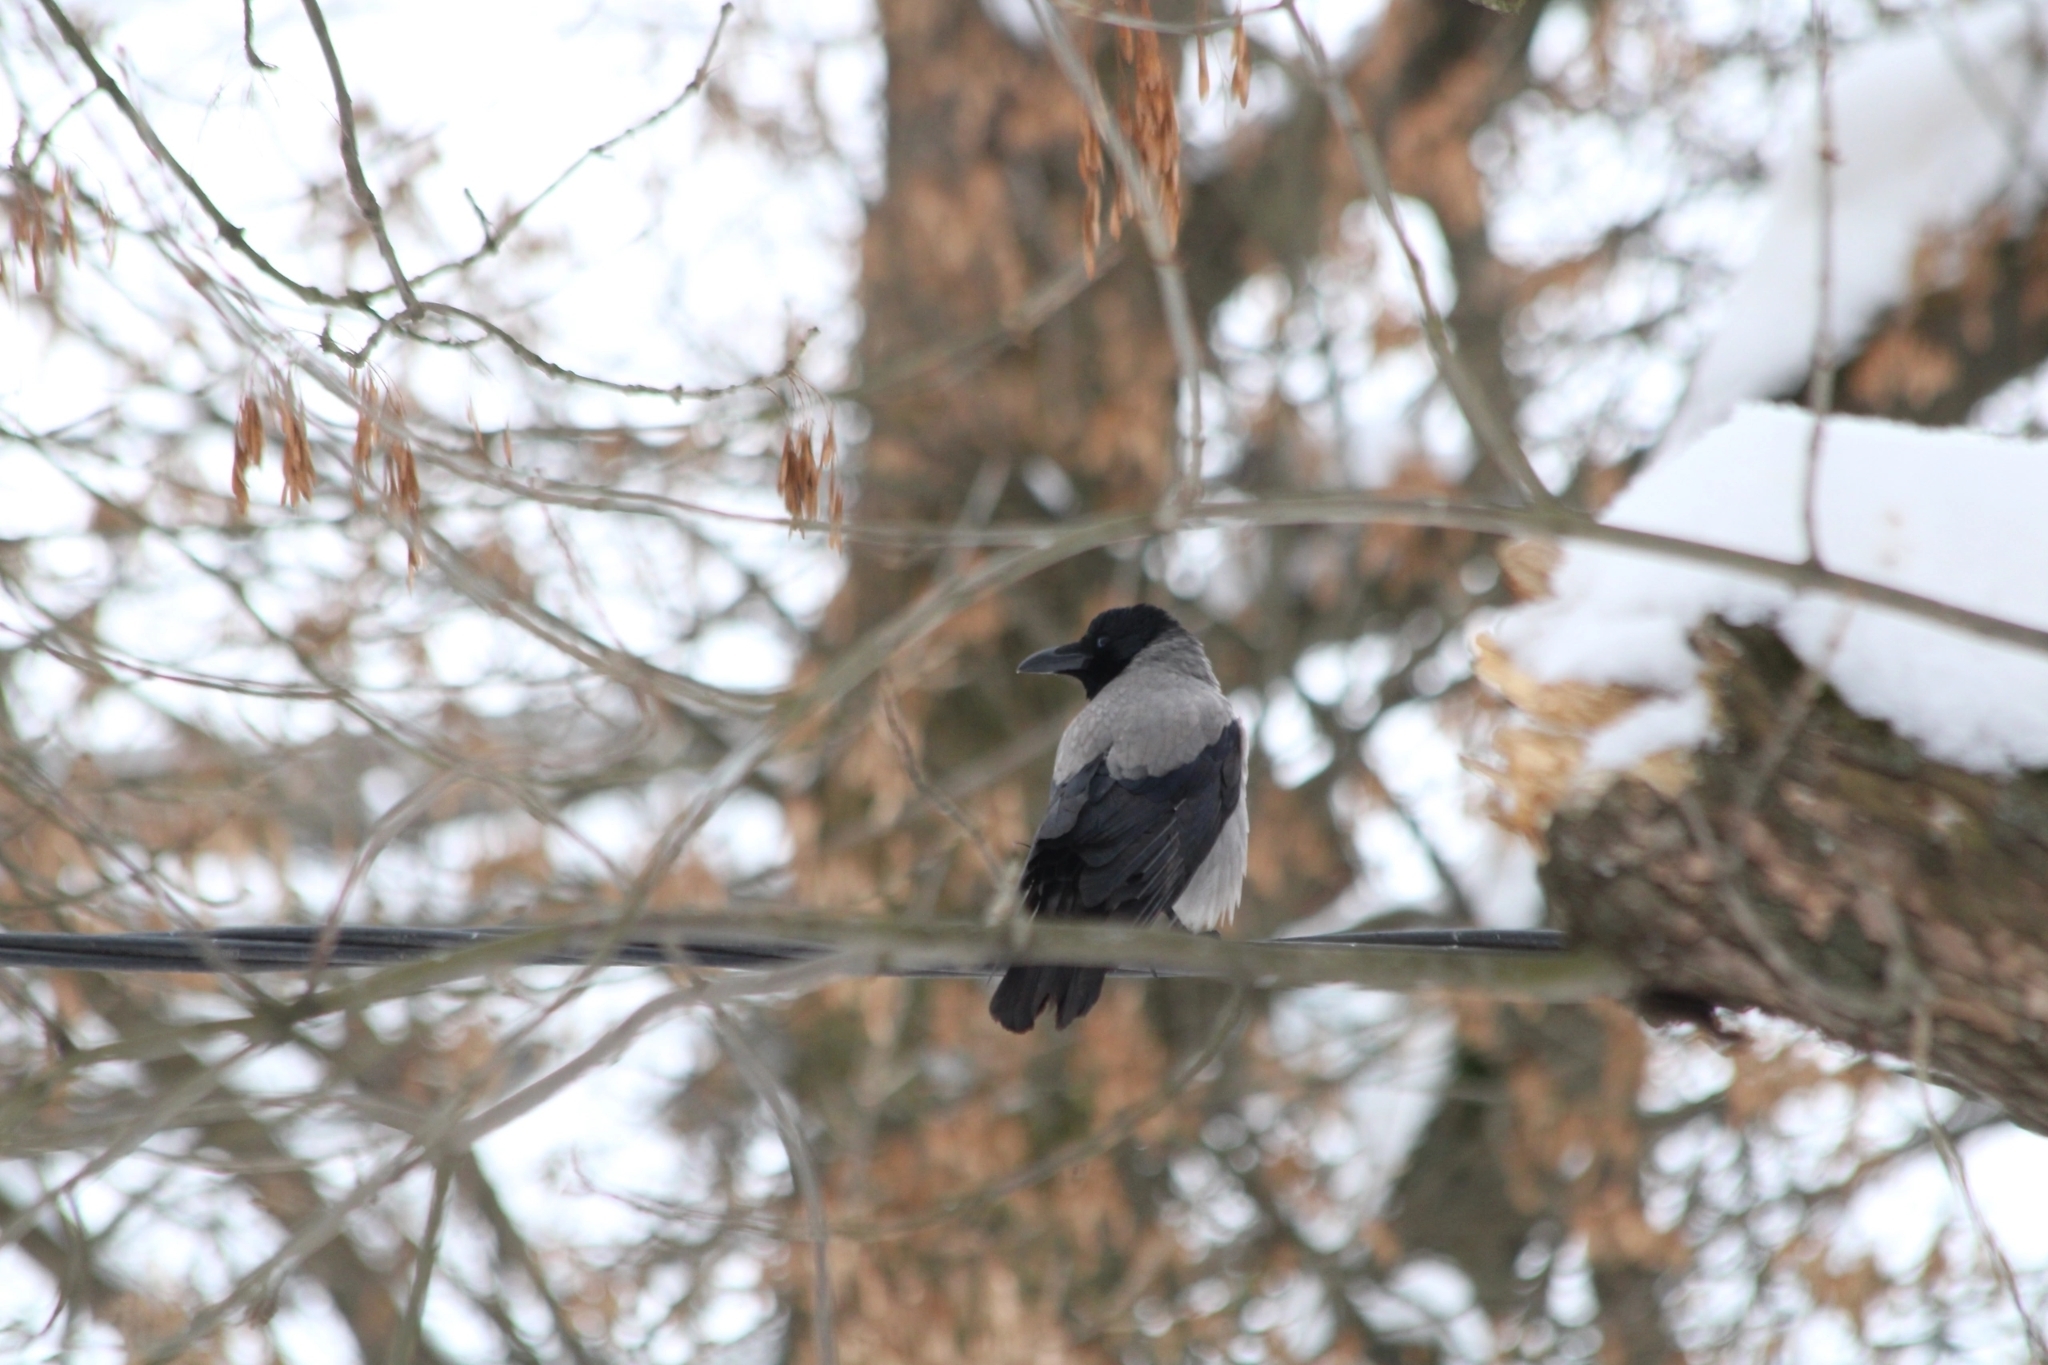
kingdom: Animalia
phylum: Chordata
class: Aves
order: Passeriformes
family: Corvidae
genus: Corvus
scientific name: Corvus cornix
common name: Hooded crow
